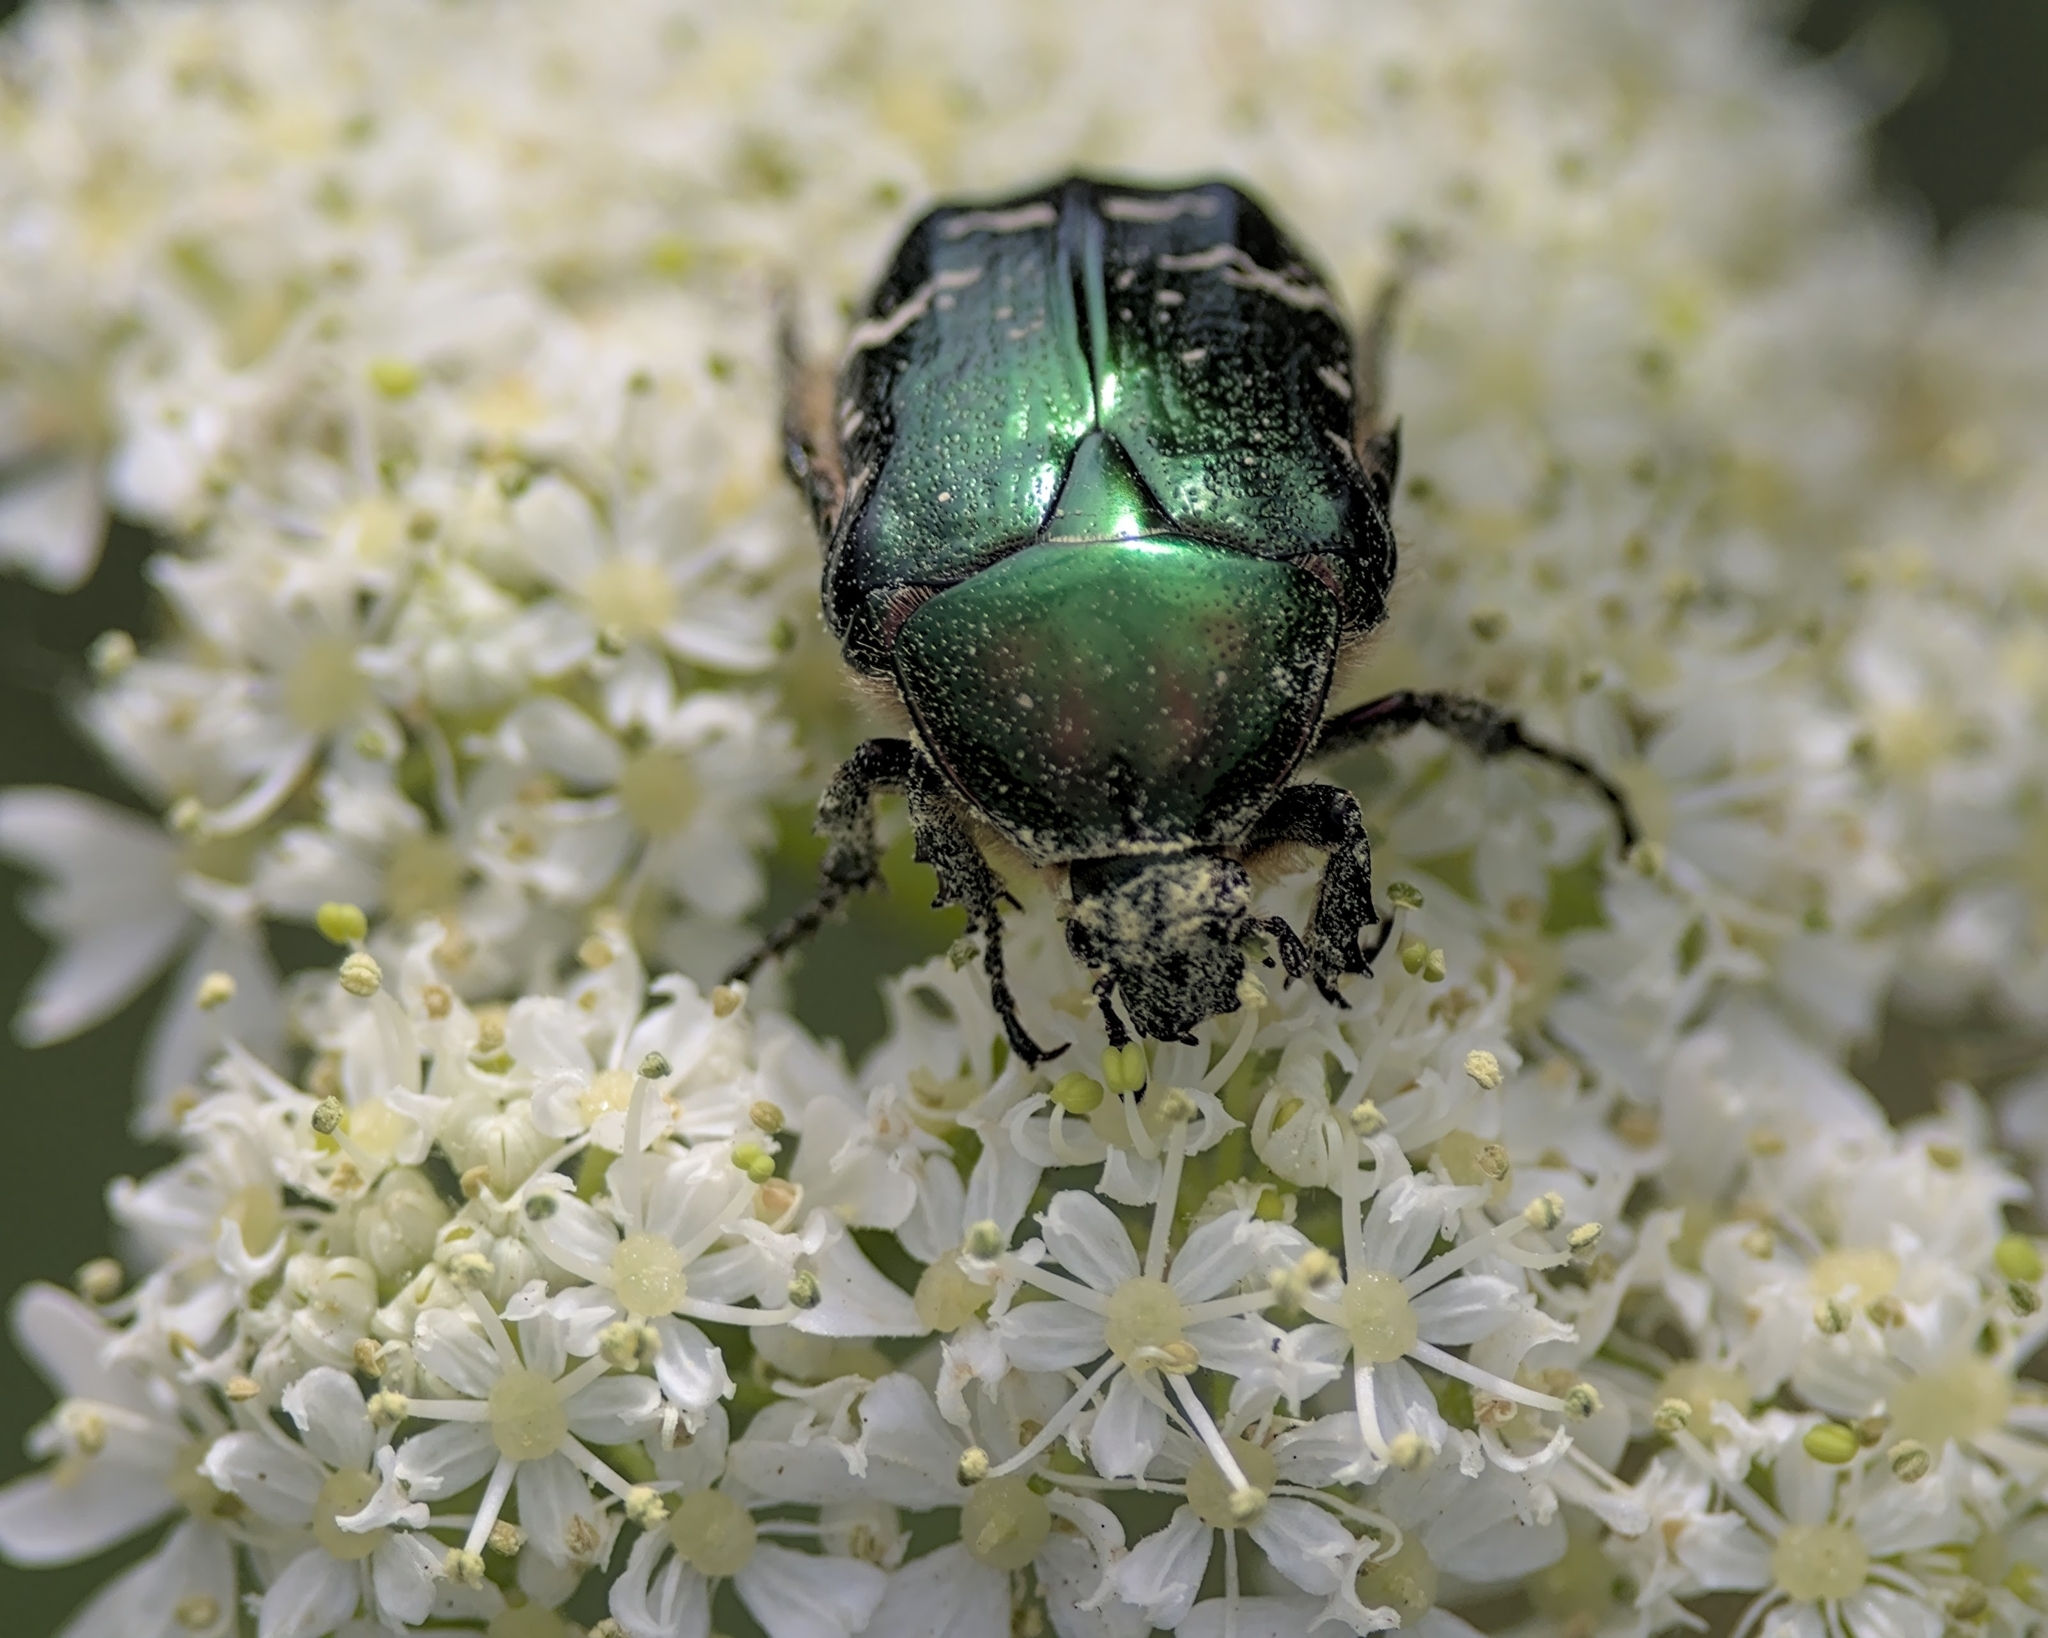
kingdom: Animalia
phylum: Arthropoda
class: Insecta
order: Coleoptera
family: Scarabaeidae
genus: Cetonia
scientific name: Cetonia aurata
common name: Rose chafer
